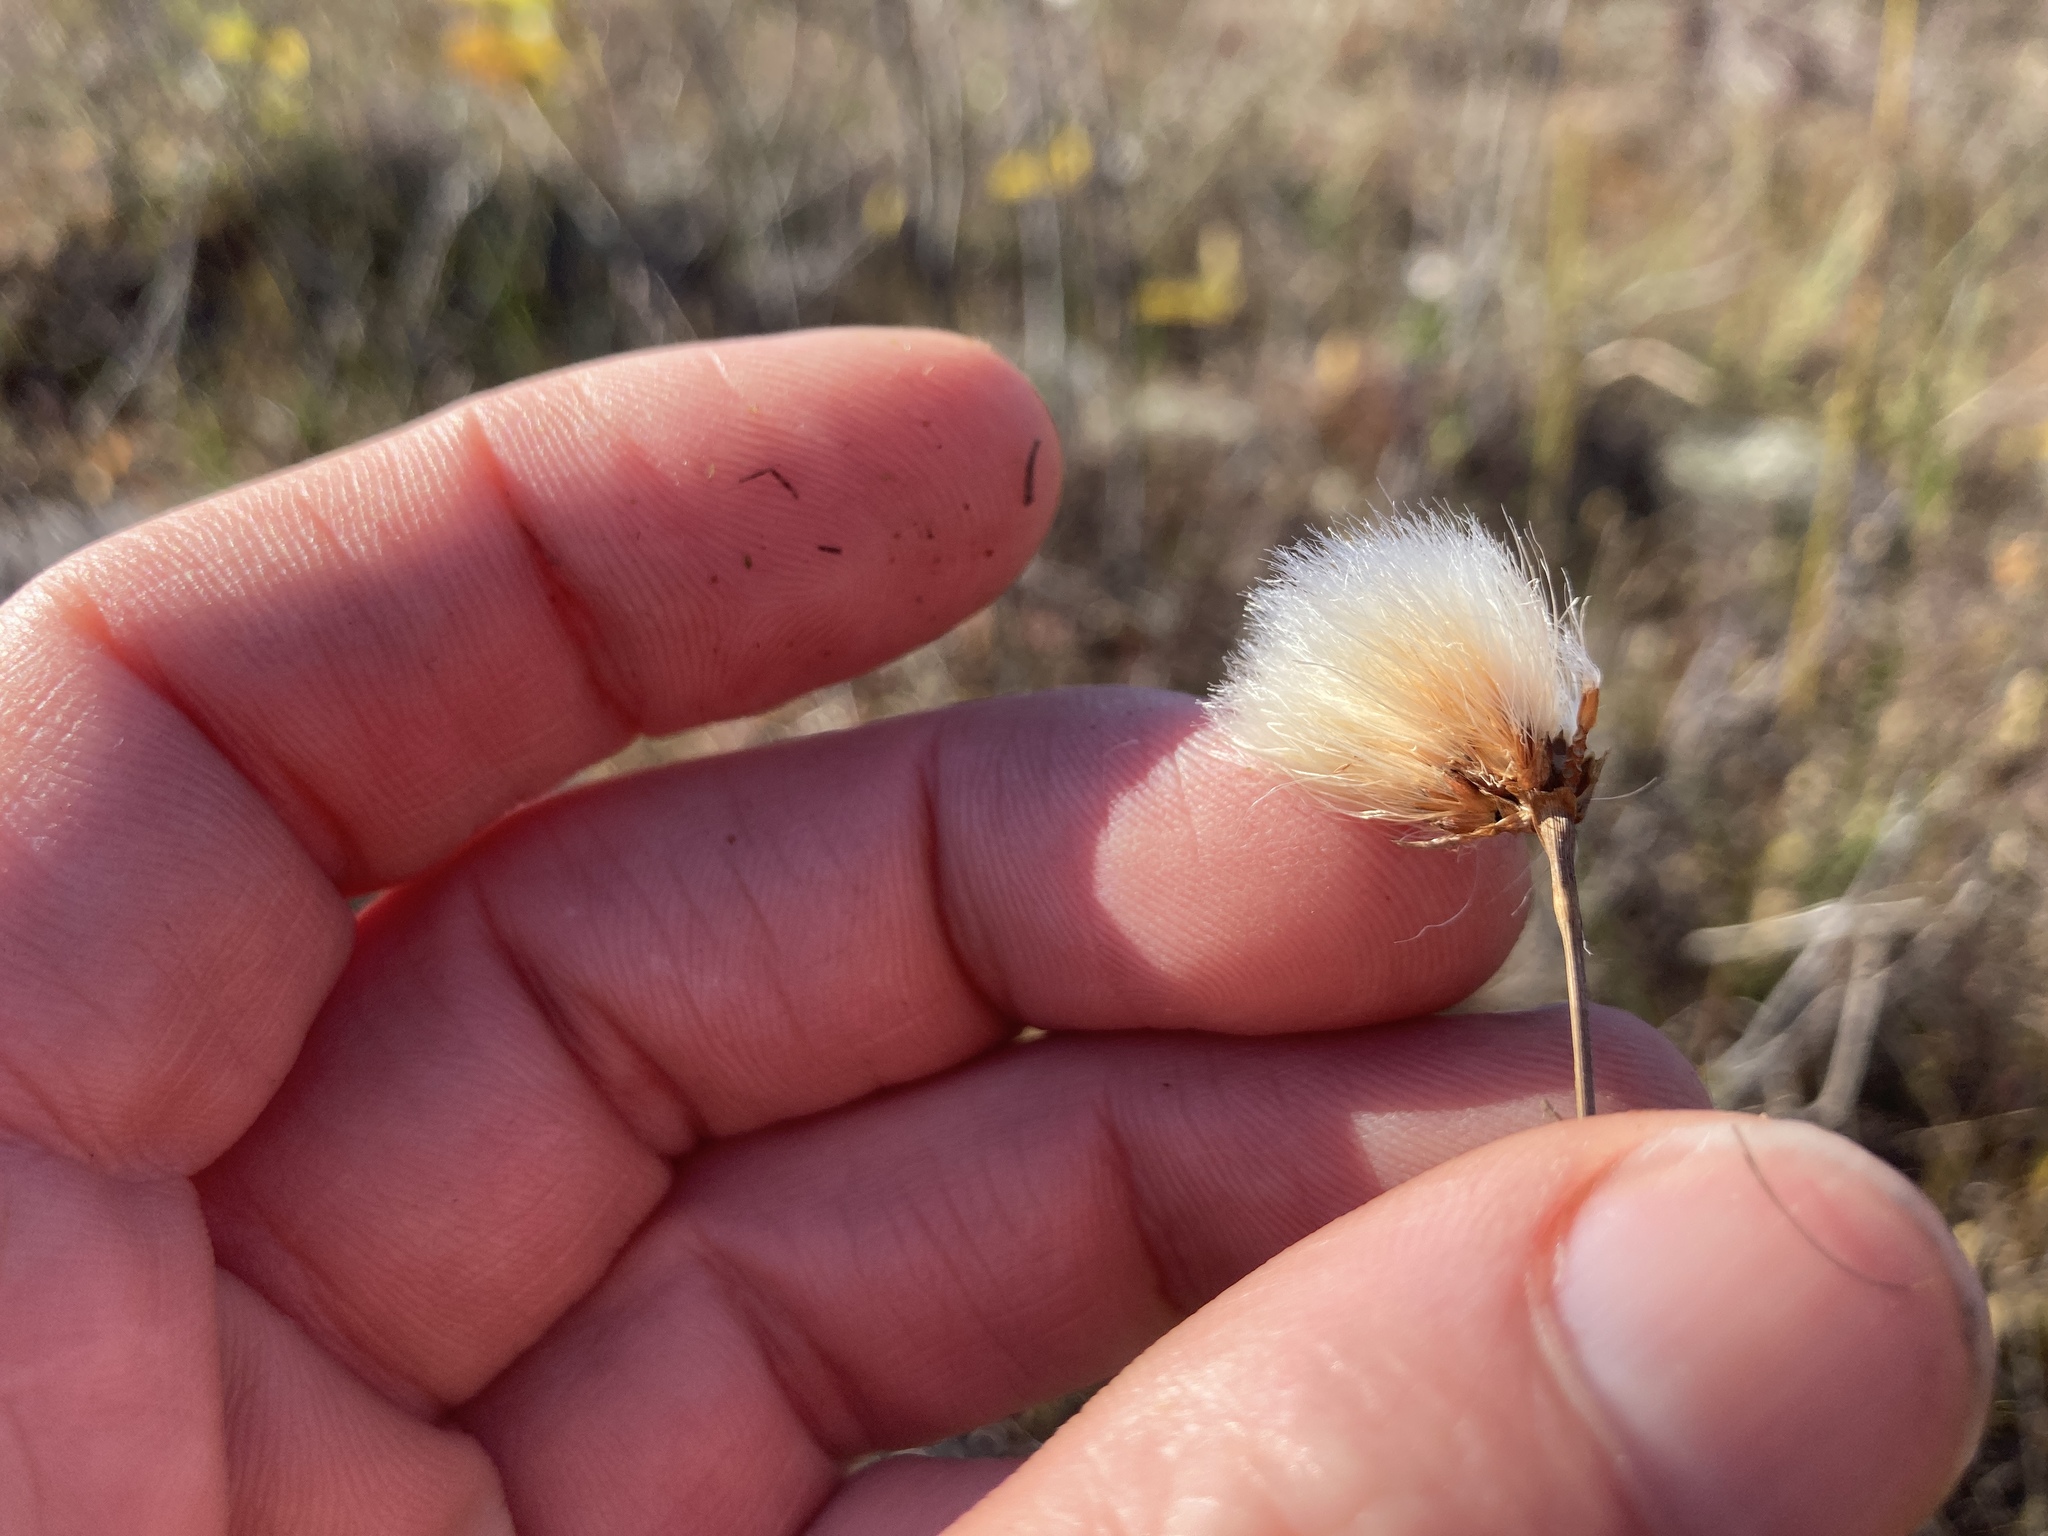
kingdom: Plantae
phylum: Tracheophyta
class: Liliopsida
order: Poales
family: Cyperaceae
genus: Eriophorum
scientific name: Eriophorum virginicum
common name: Tawny cottongrass
